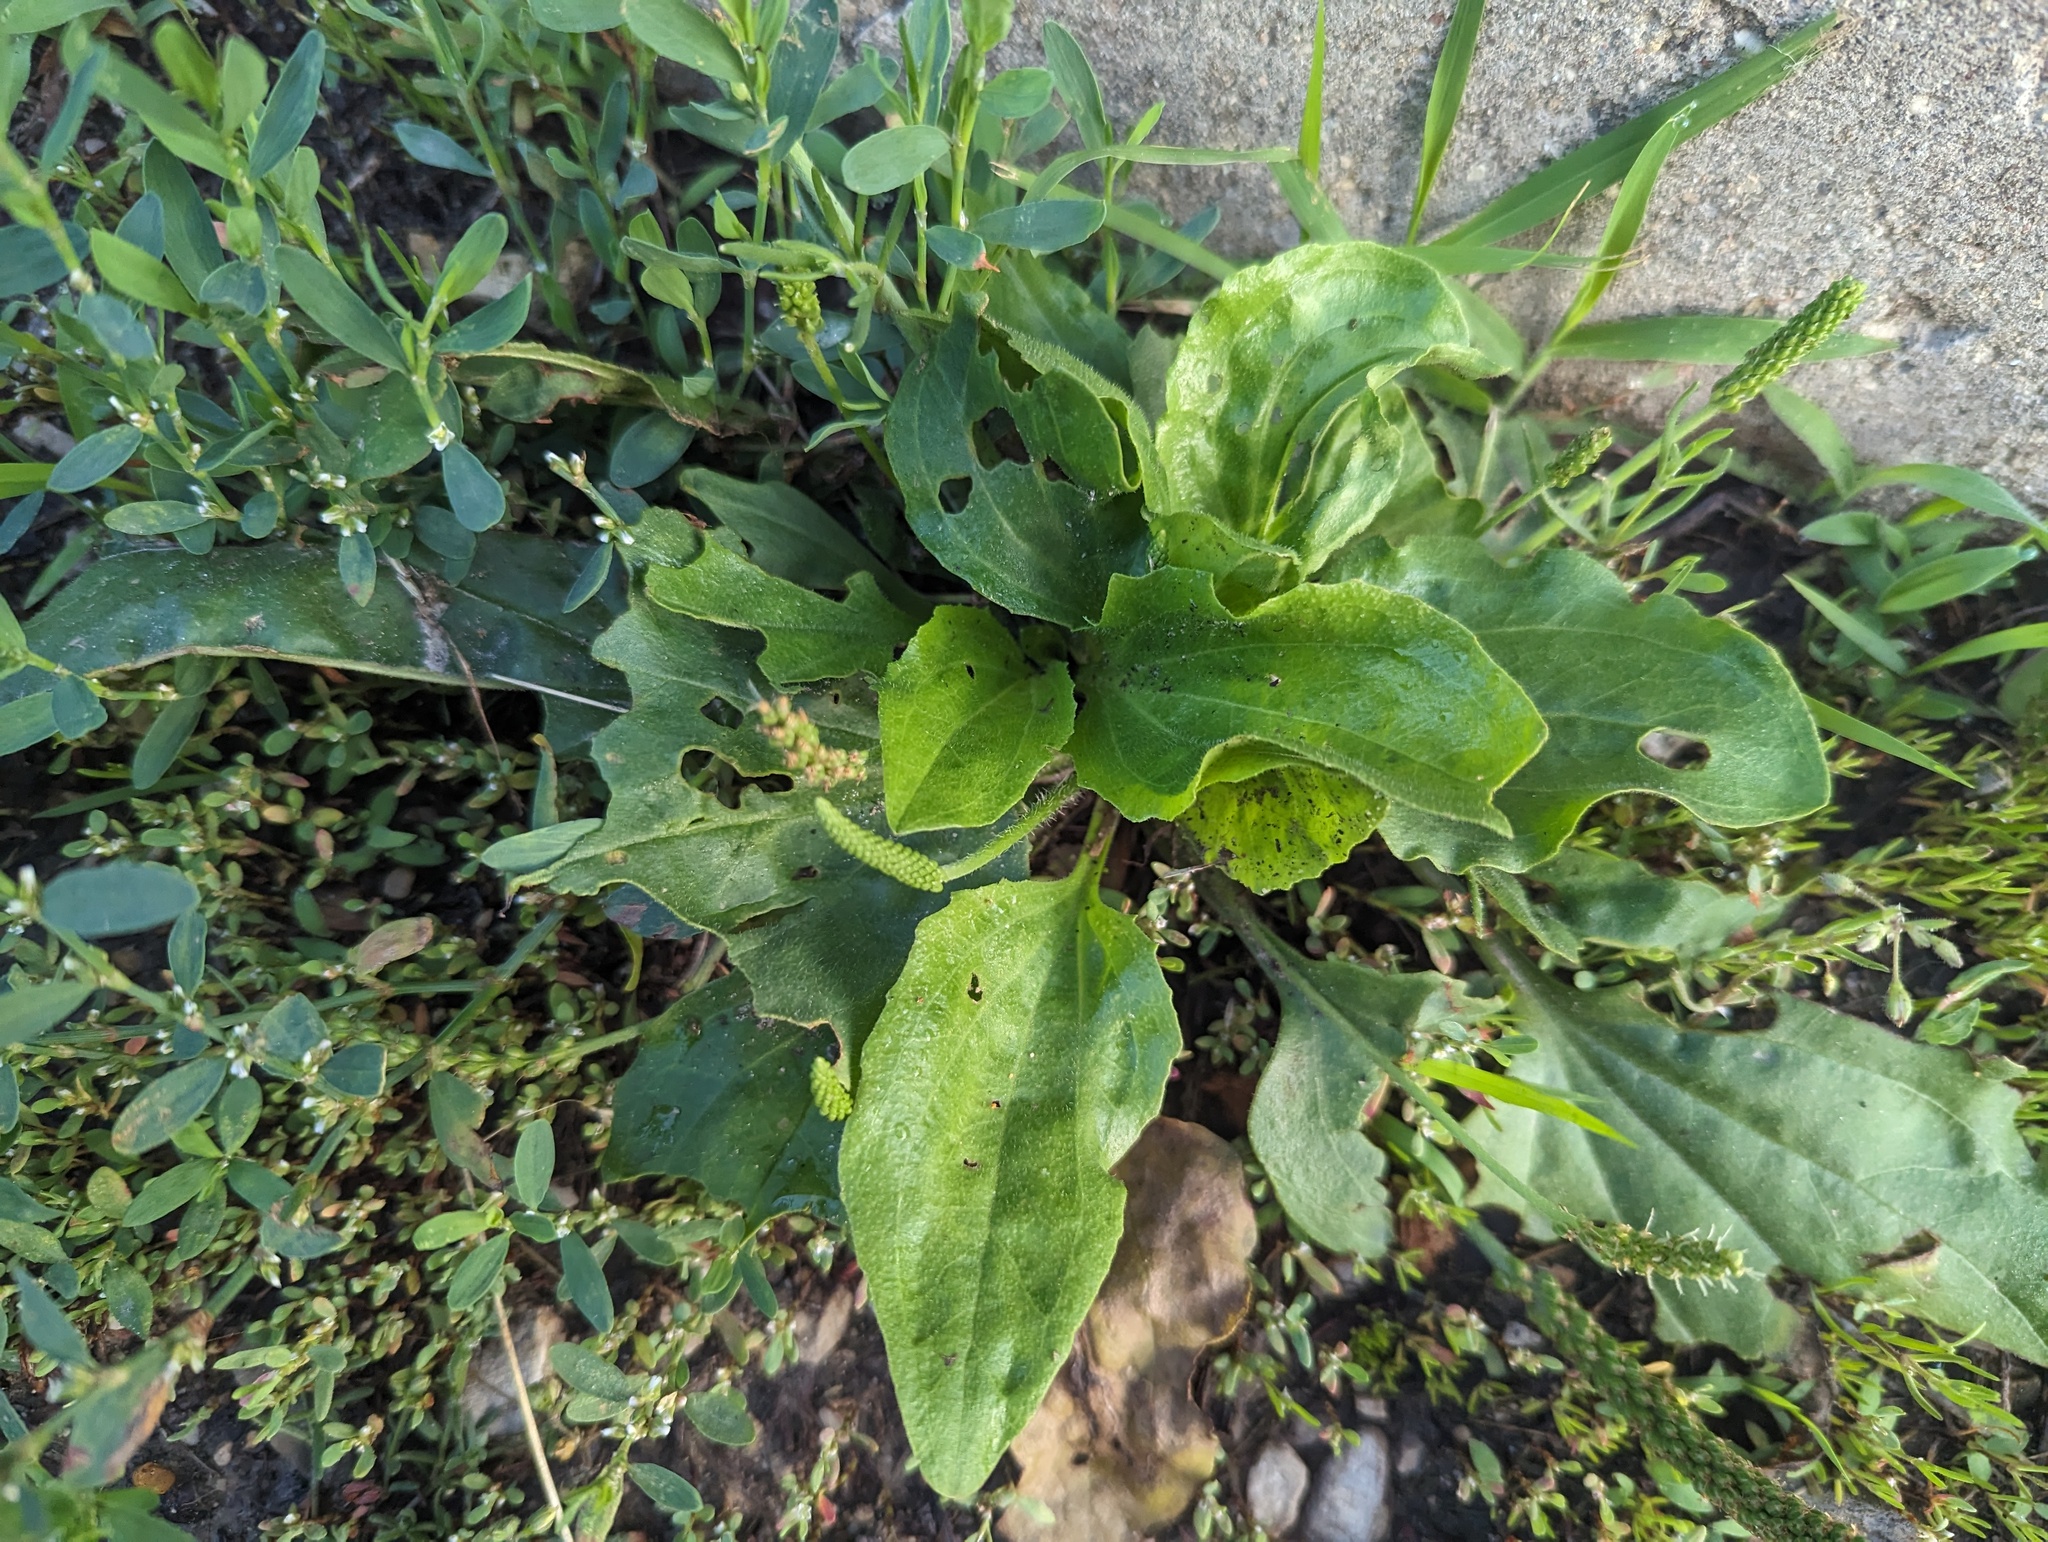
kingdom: Plantae
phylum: Tracheophyta
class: Magnoliopsida
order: Lamiales
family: Plantaginaceae
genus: Plantago
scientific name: Plantago major
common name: Common plantain
